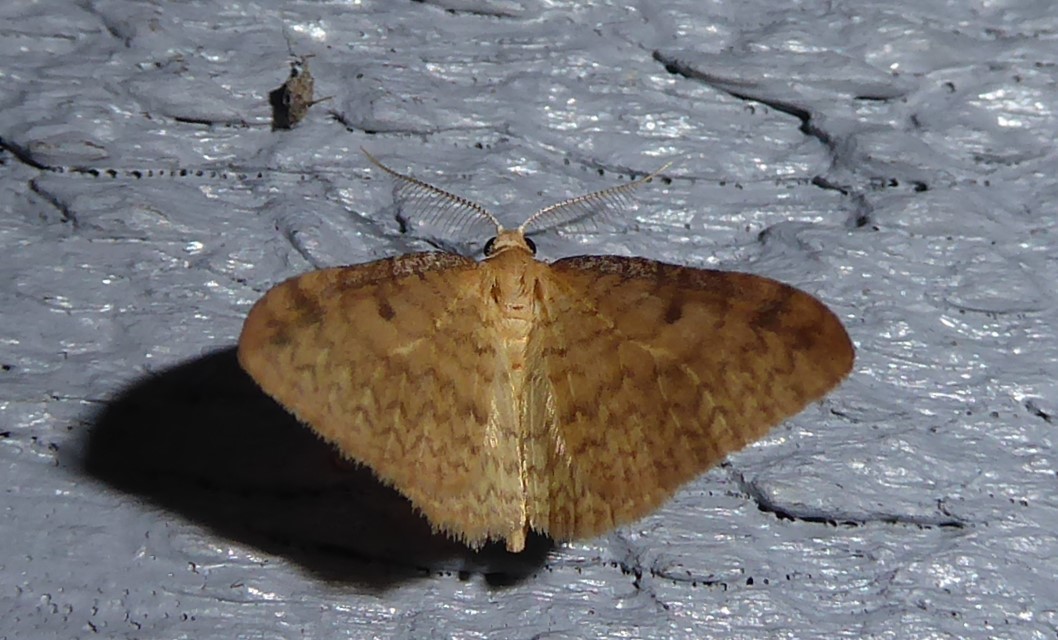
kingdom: Animalia
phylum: Arthropoda
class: Insecta
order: Lepidoptera
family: Geometridae
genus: Epiphryne
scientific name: Epiphryne undosata
